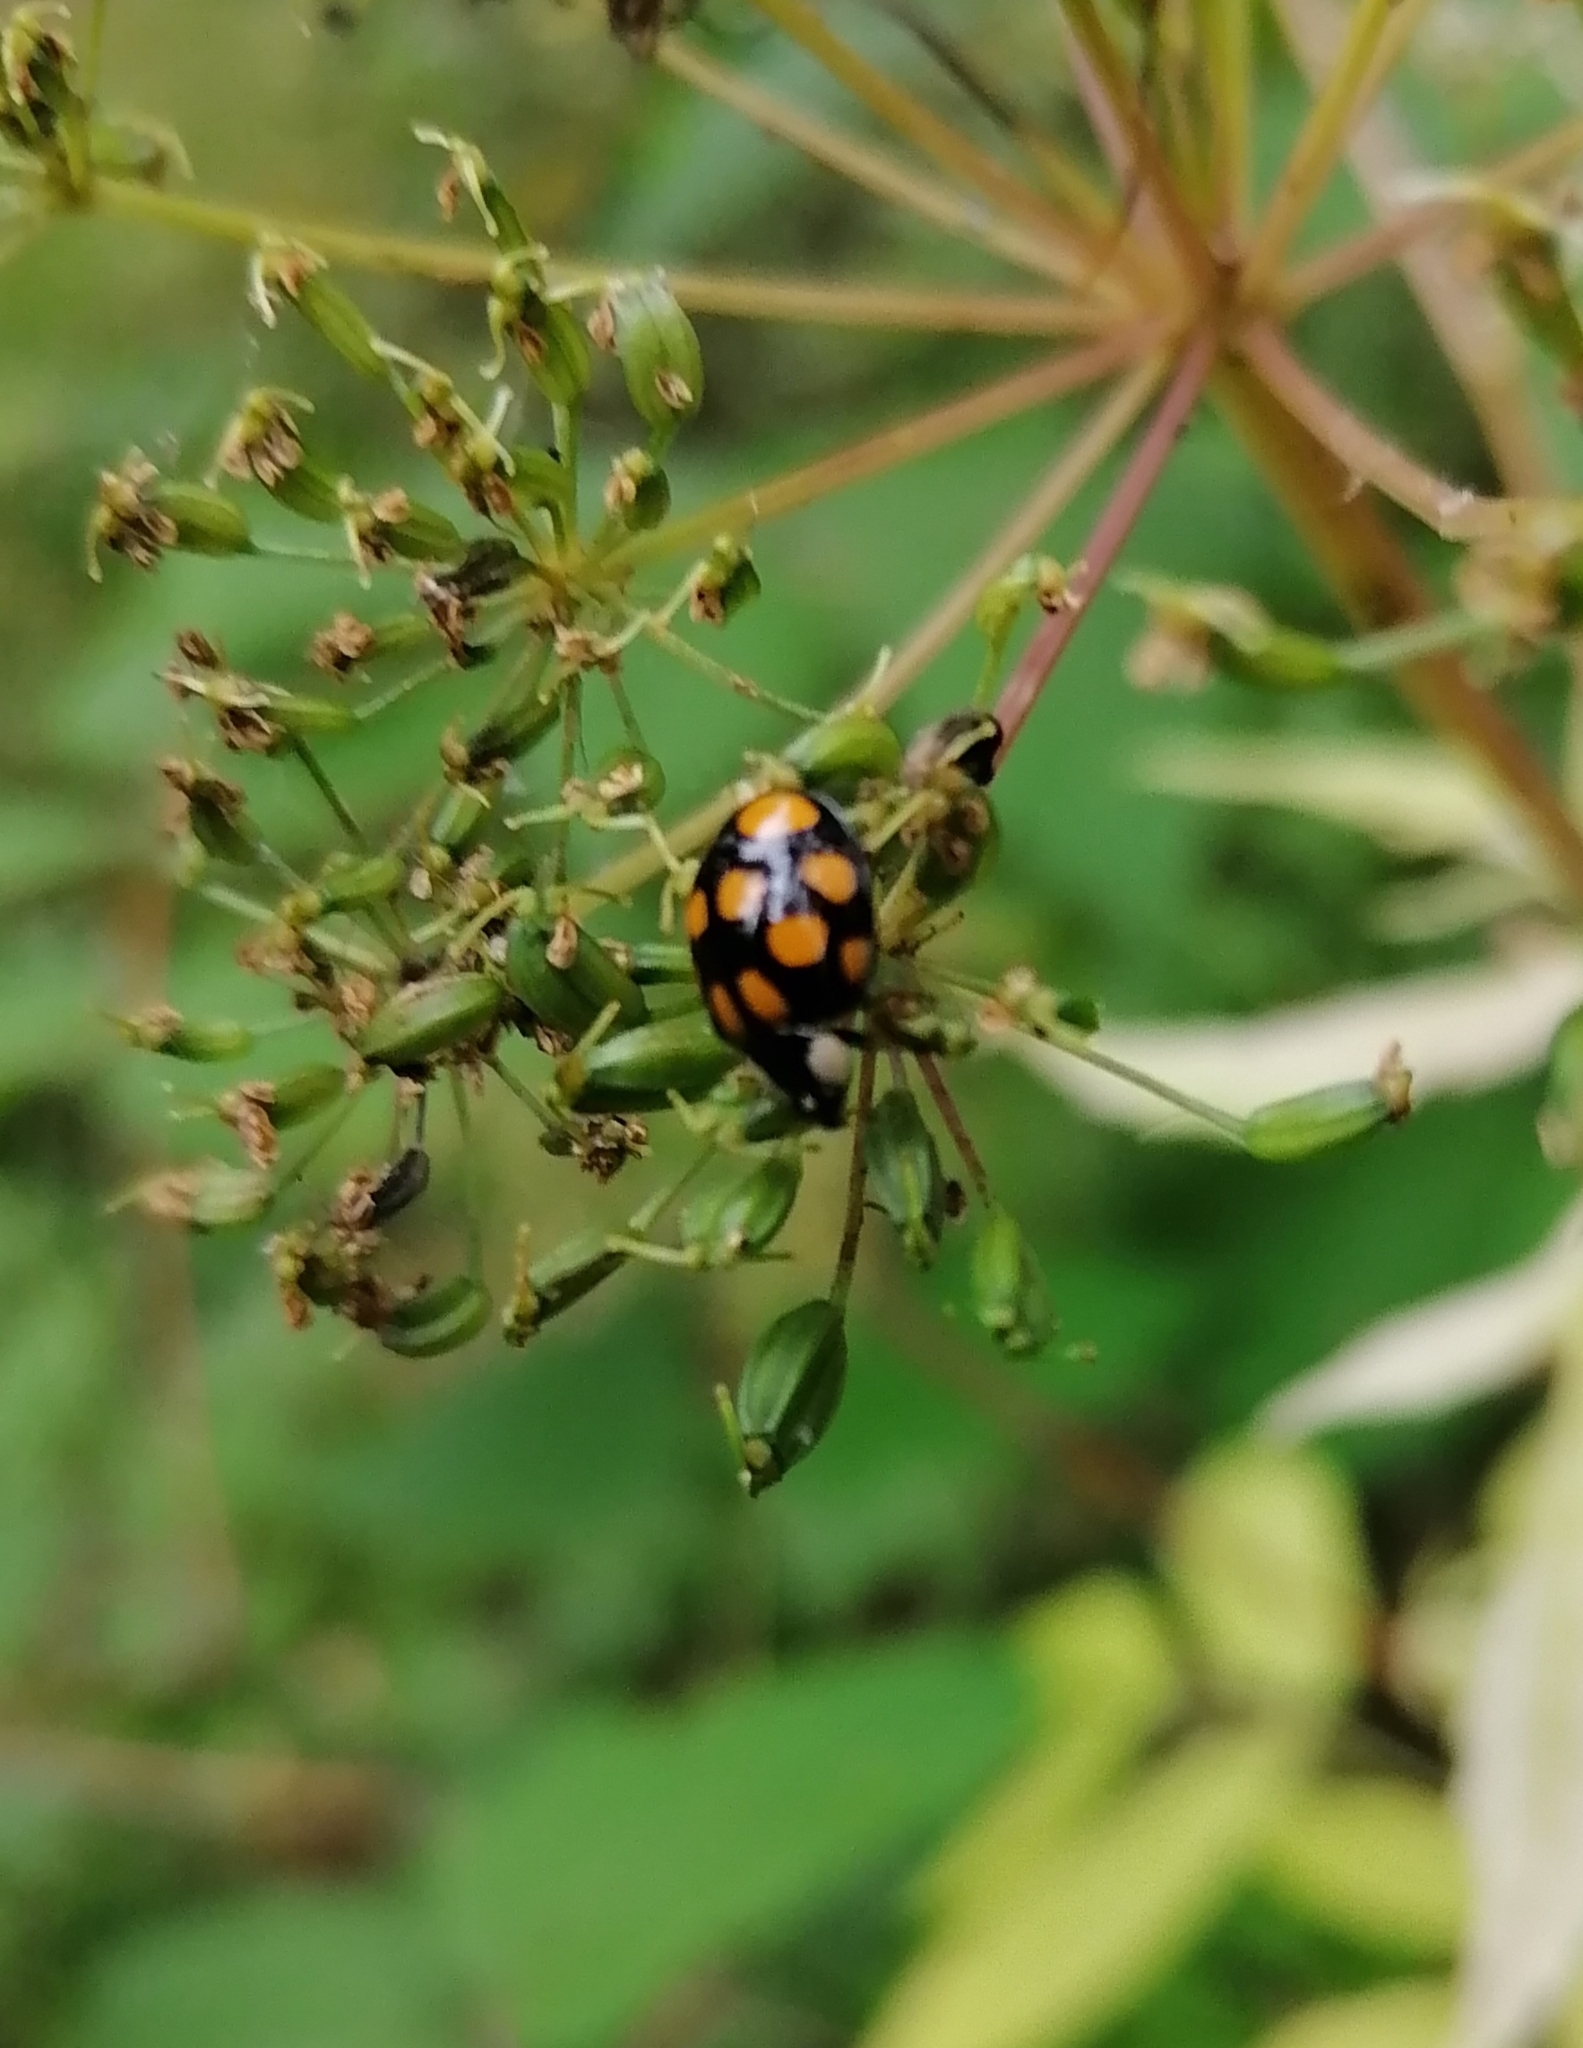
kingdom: Animalia
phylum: Arthropoda
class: Insecta
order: Coleoptera
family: Coccinellidae
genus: Harmonia
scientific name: Harmonia axyridis
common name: Harlequin ladybird
